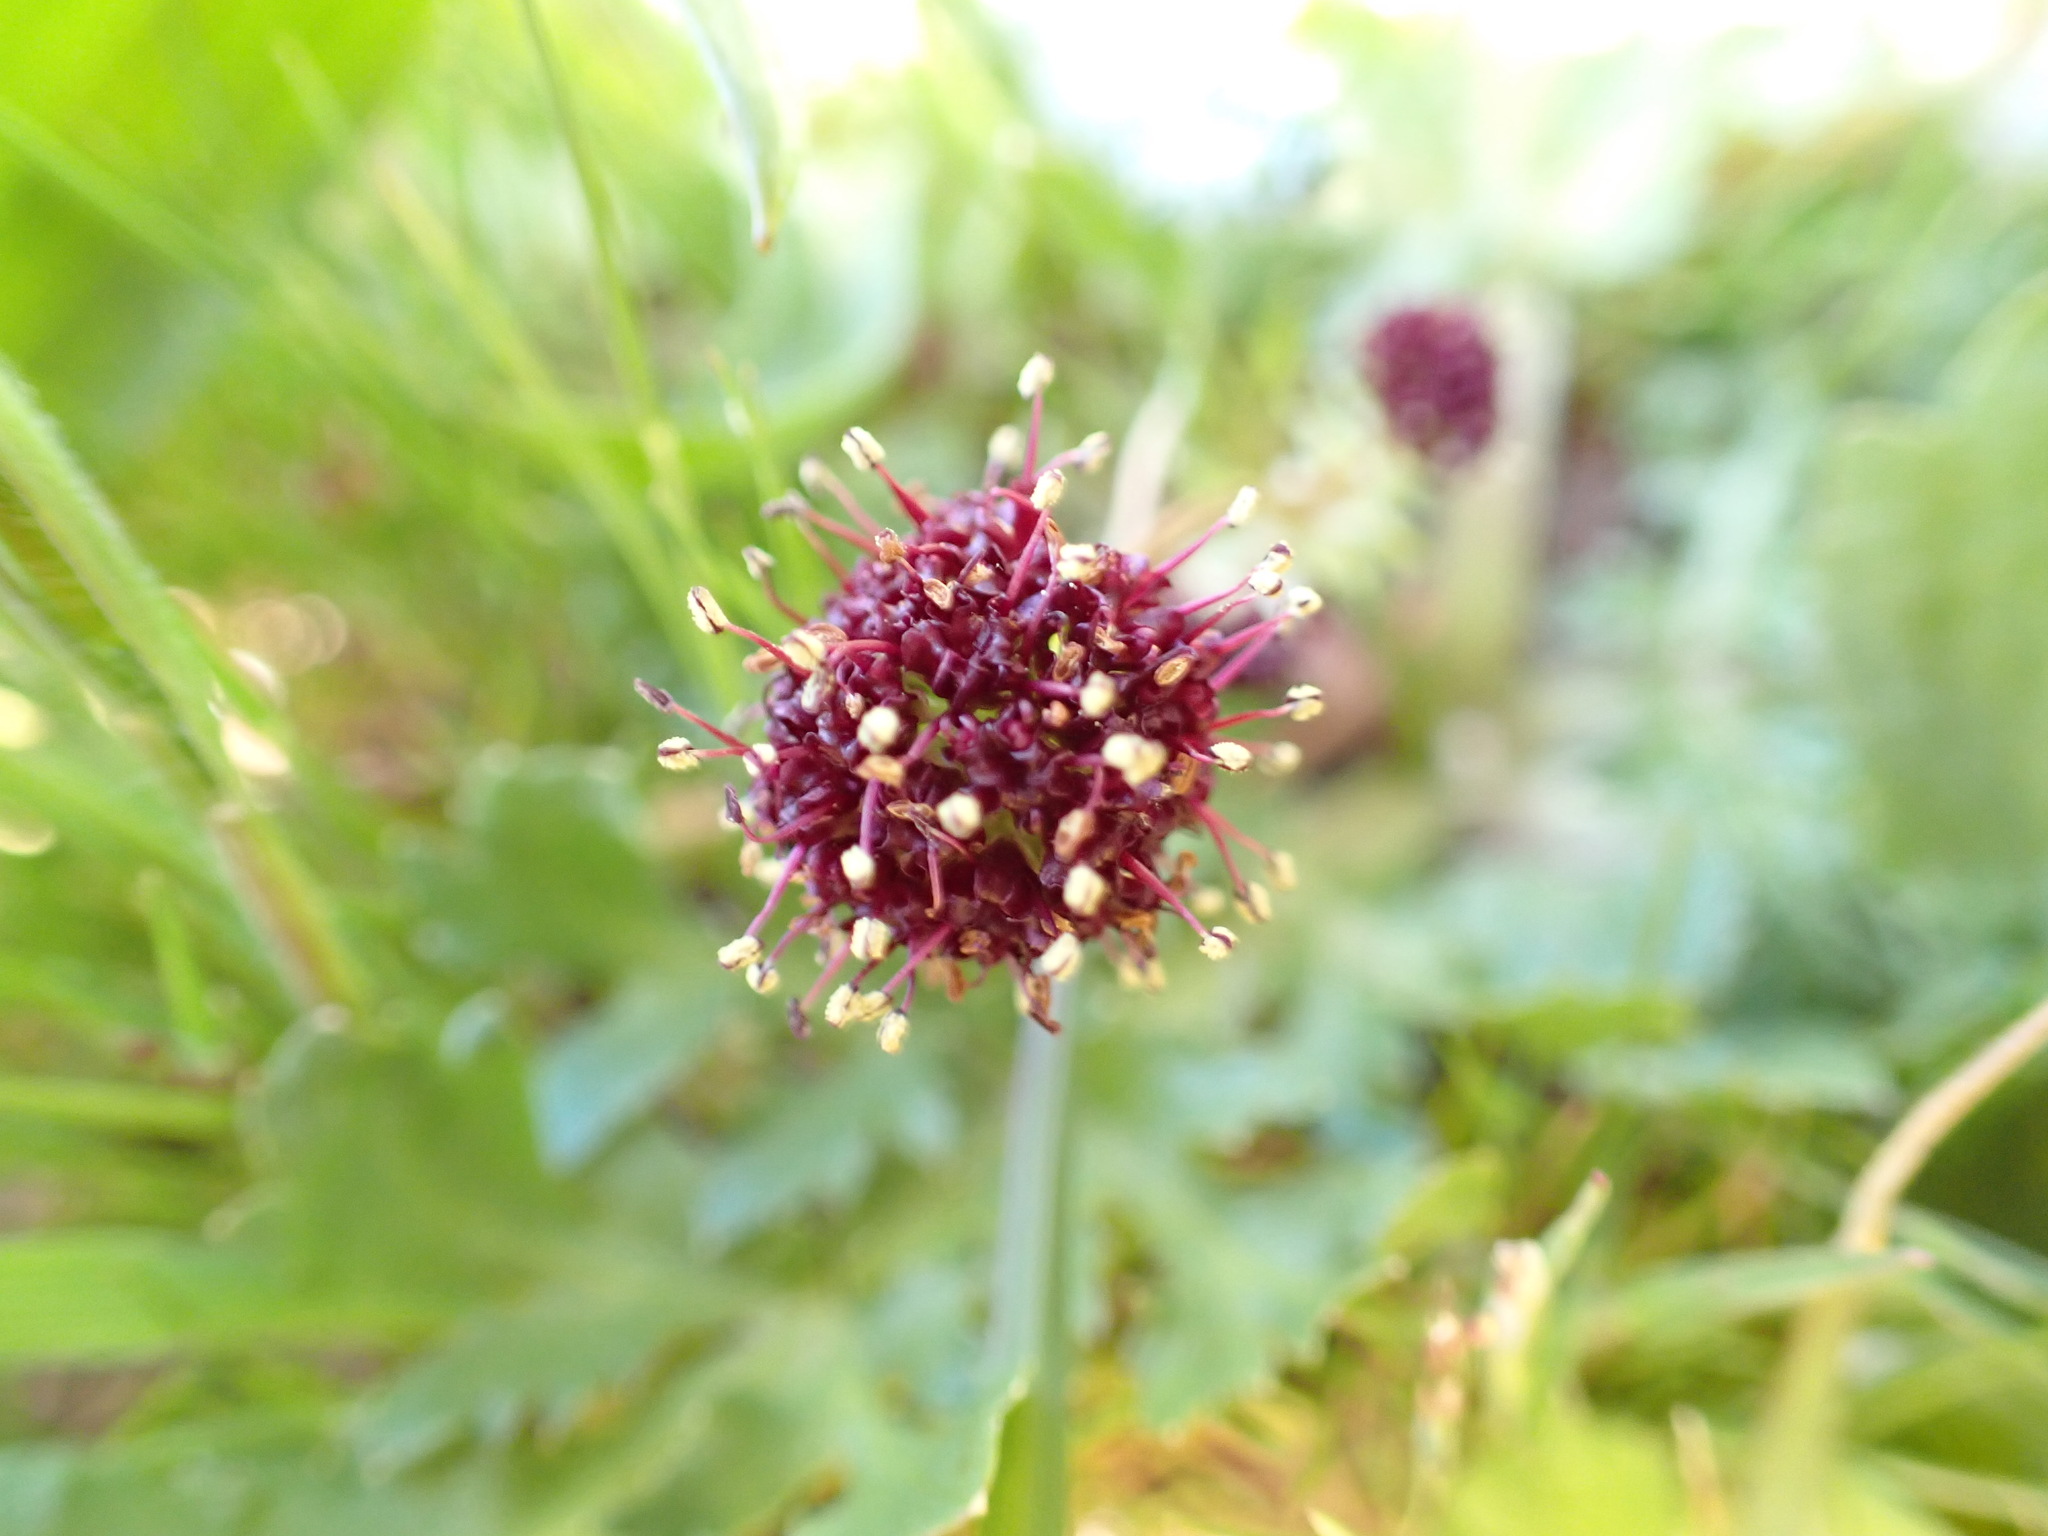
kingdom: Plantae
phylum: Tracheophyta
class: Magnoliopsida
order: Apiales
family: Apiaceae
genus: Sanicula
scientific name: Sanicula bipinnatifida
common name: Shoe-buttons
